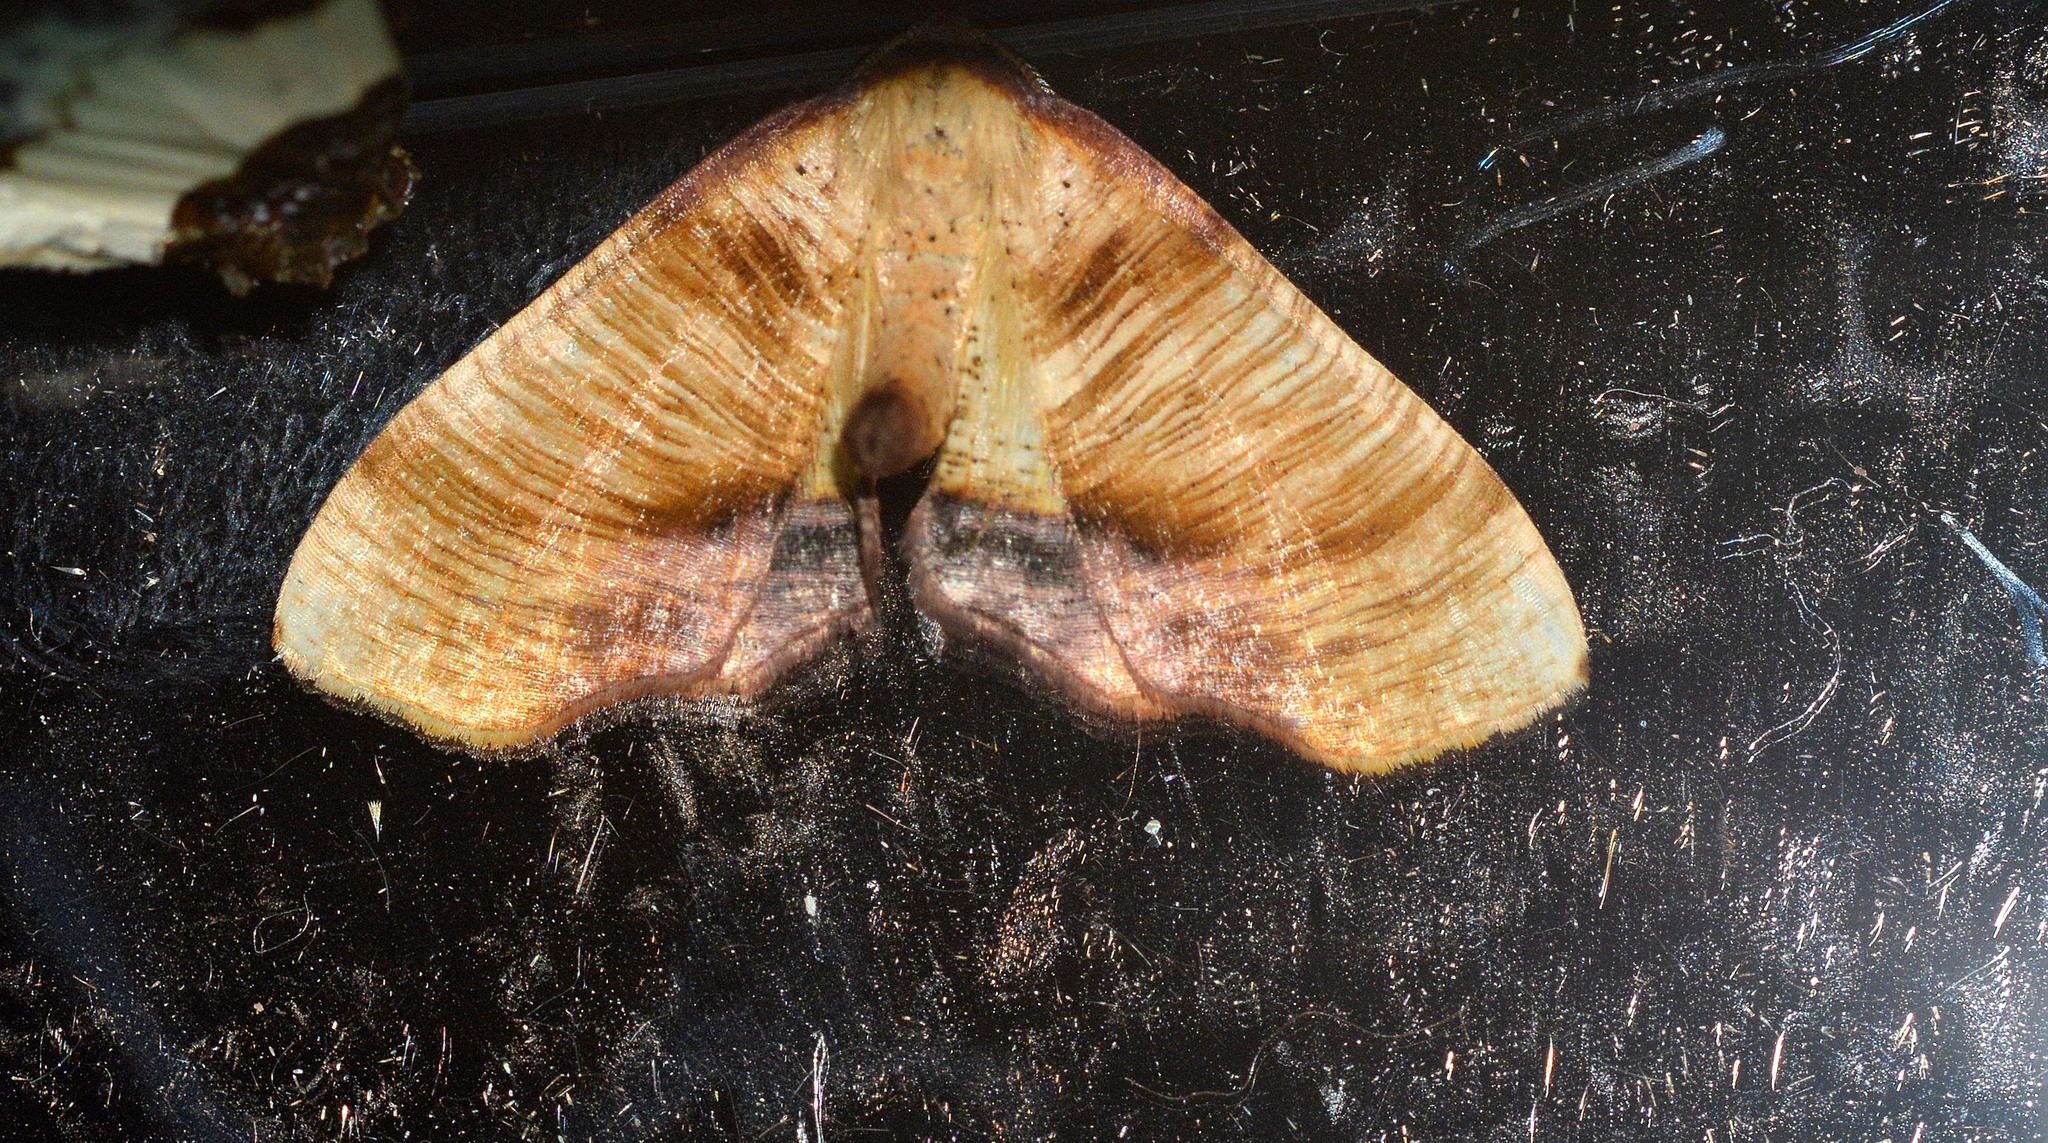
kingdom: Animalia
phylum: Arthropoda
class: Insecta
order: Lepidoptera
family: Geometridae
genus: Plagodis
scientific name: Plagodis dolabraria
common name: Scorched wing
